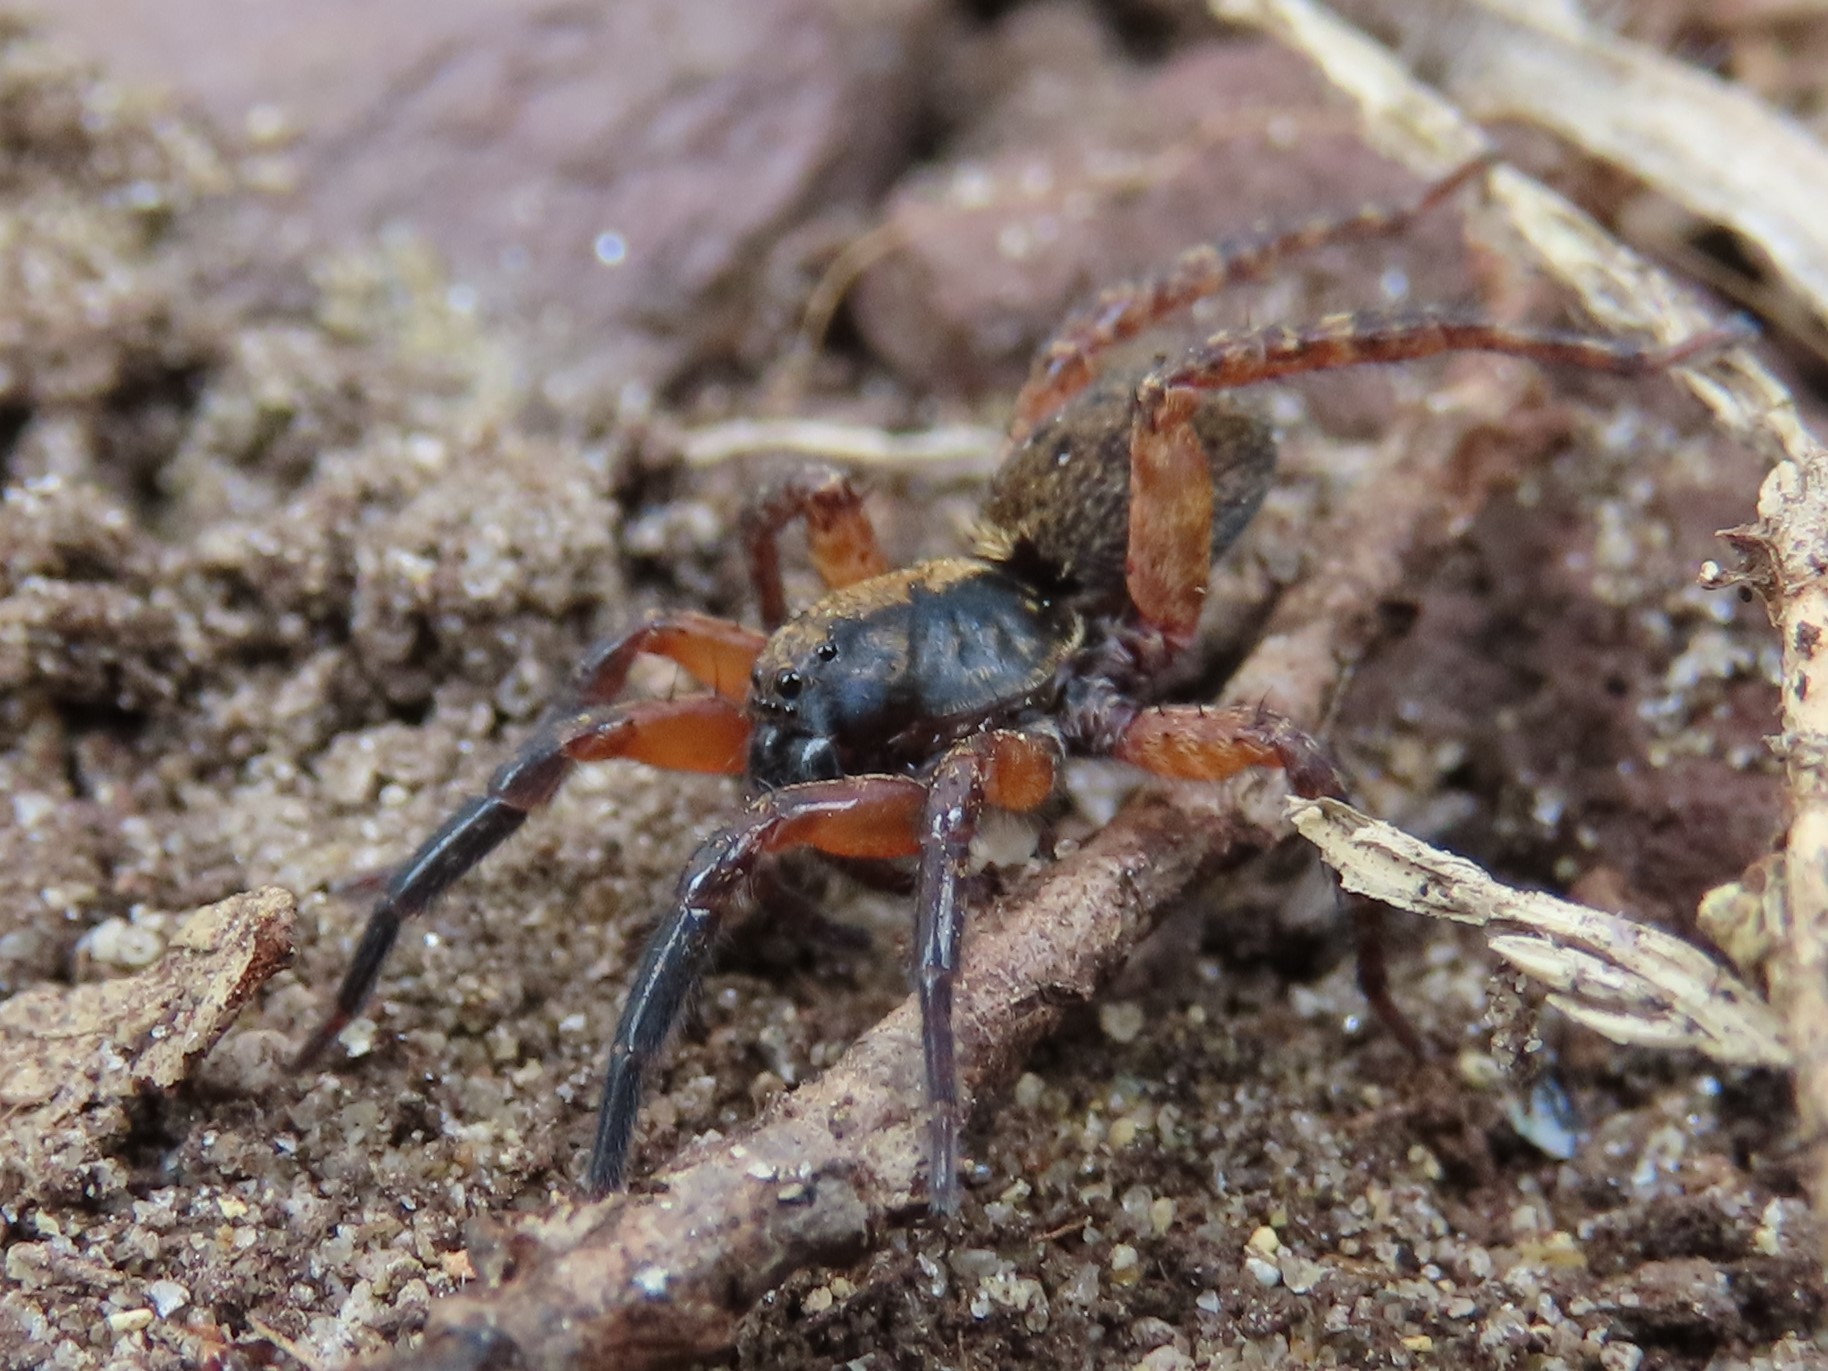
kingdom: Animalia
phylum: Arthropoda
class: Arachnida
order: Araneae
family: Lycosidae
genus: Trochosa
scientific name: Trochosa sepulchralis
